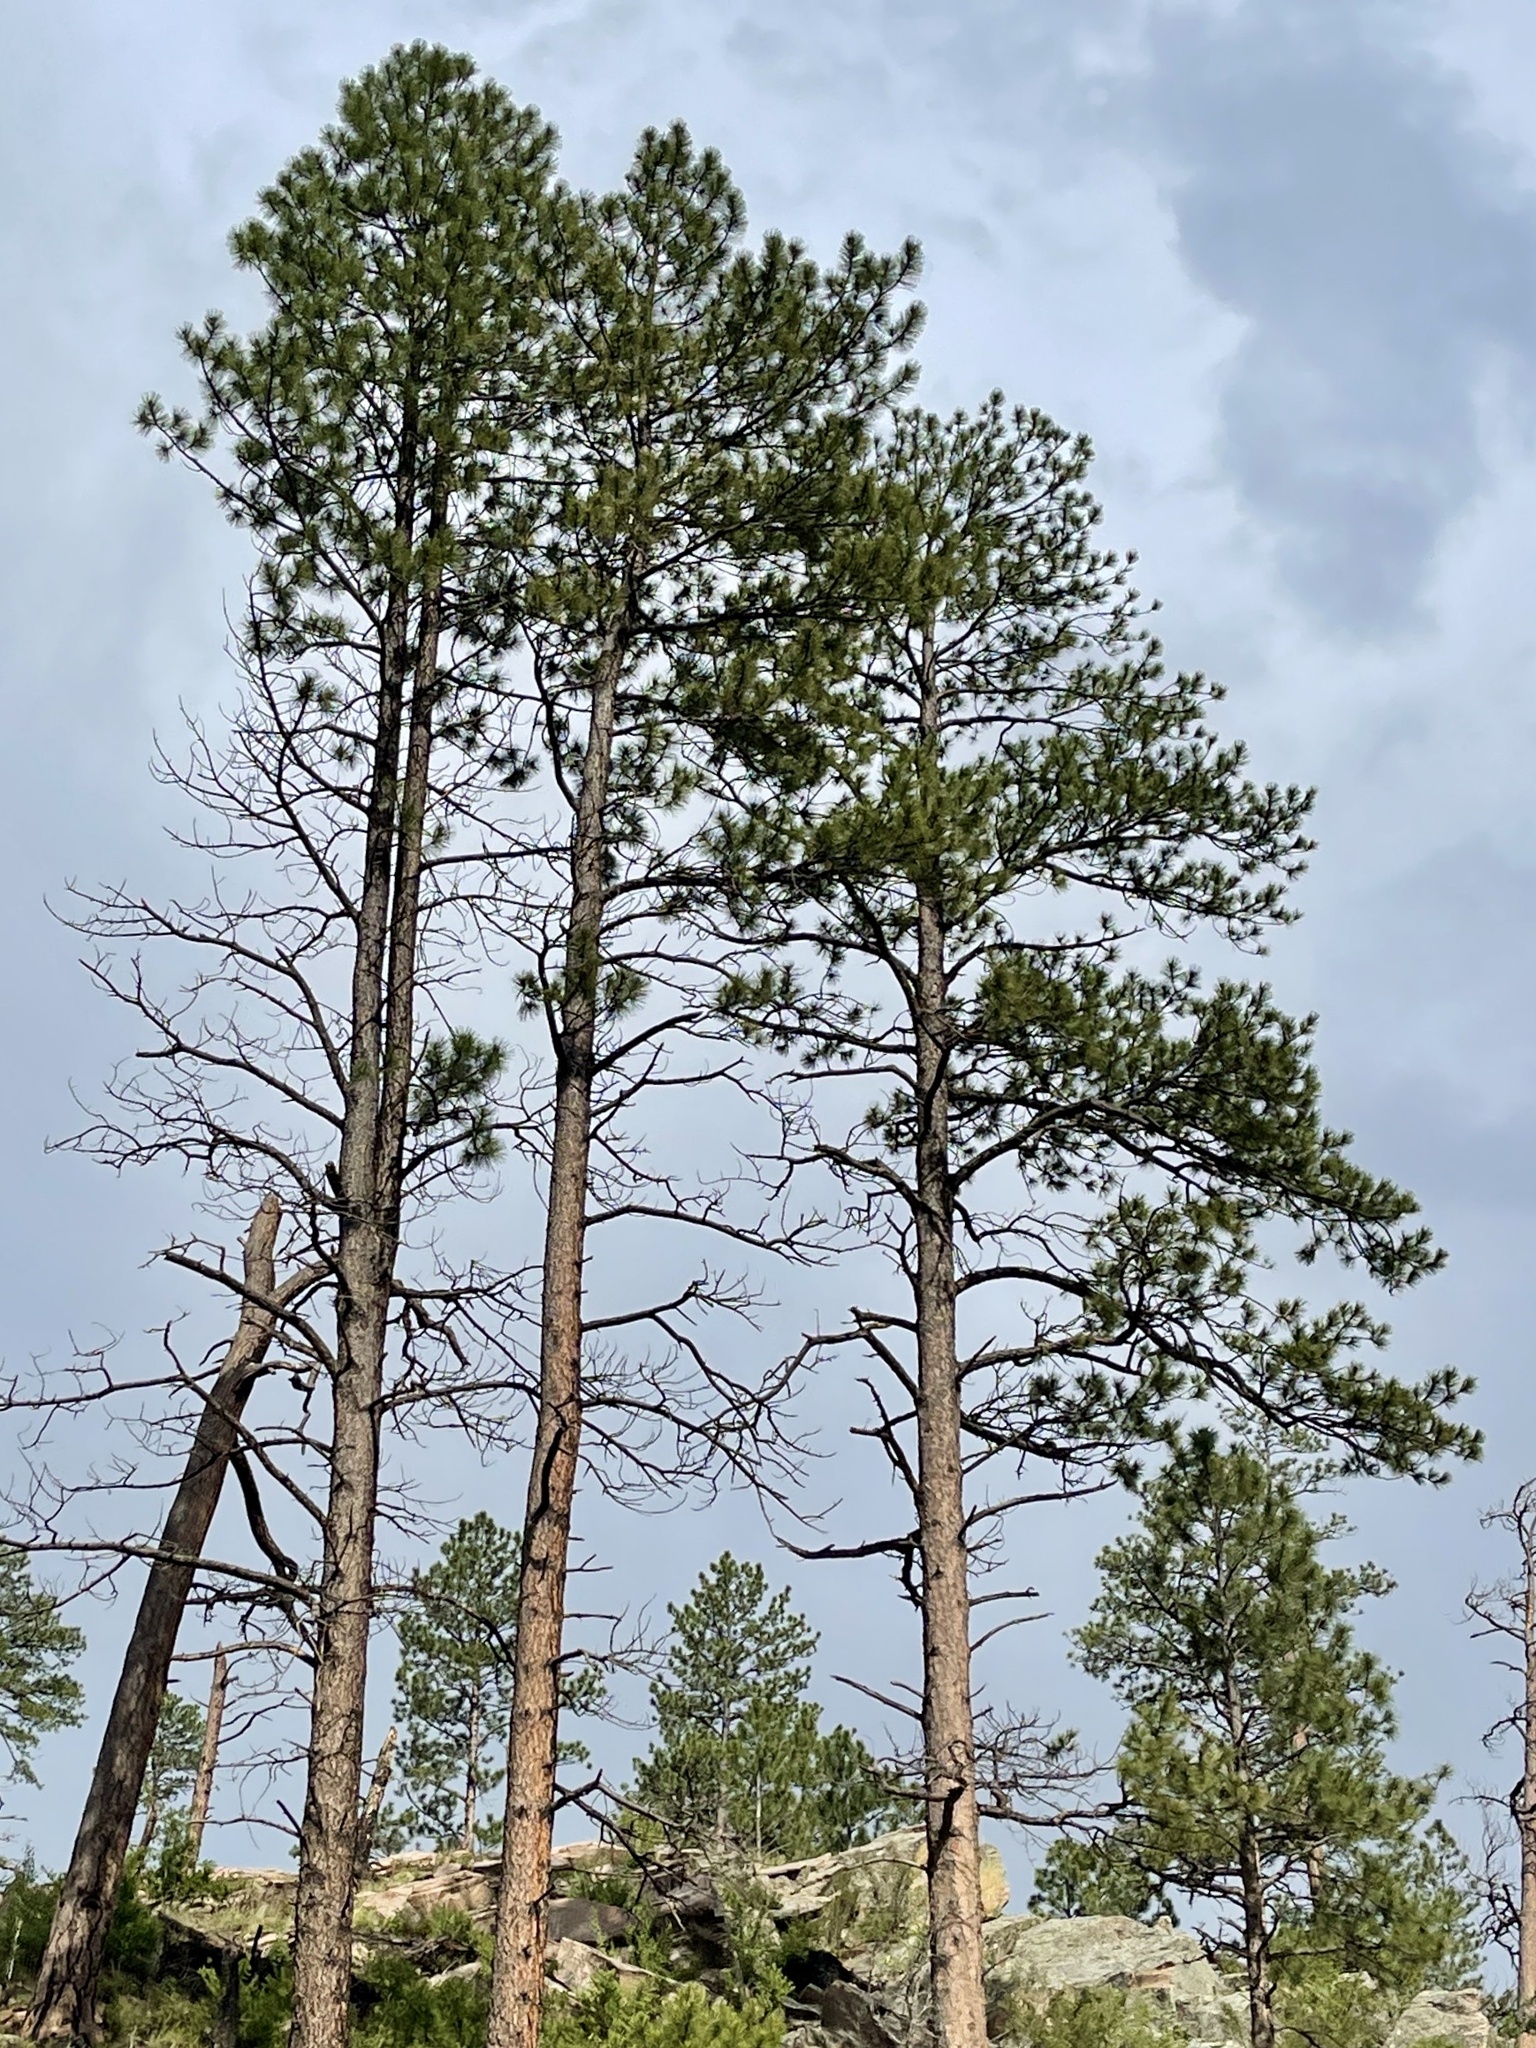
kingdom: Plantae
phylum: Tracheophyta
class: Pinopsida
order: Pinales
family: Pinaceae
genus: Pinus
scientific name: Pinus ponderosa
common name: Western yellow-pine
